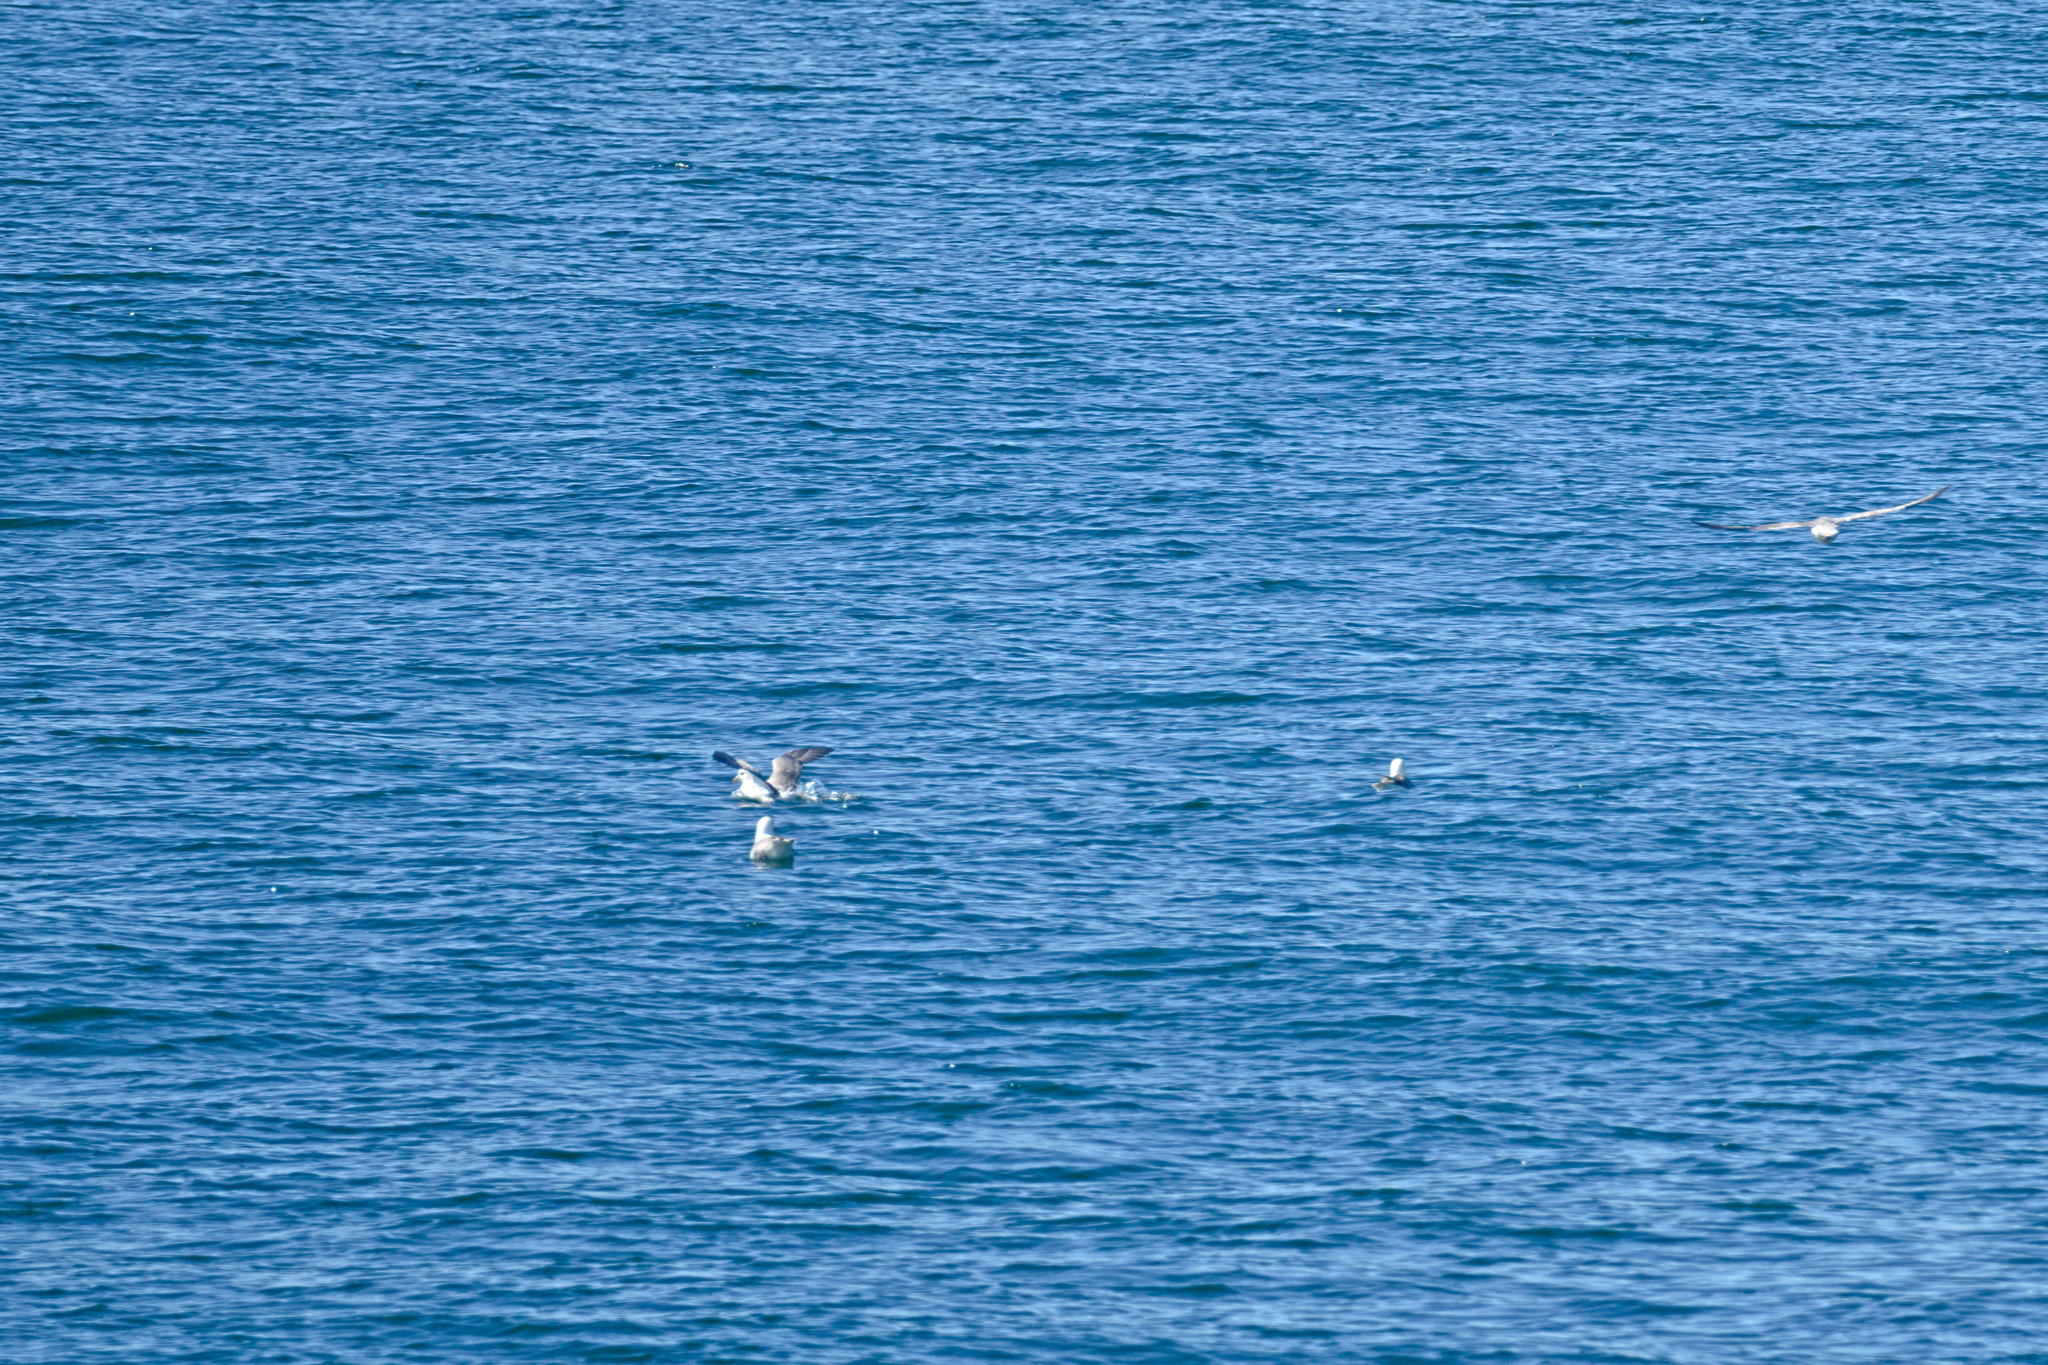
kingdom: Animalia
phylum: Chordata
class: Aves
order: Procellariiformes
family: Procellariidae
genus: Fulmarus
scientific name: Fulmarus glacialis
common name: Northern fulmar
